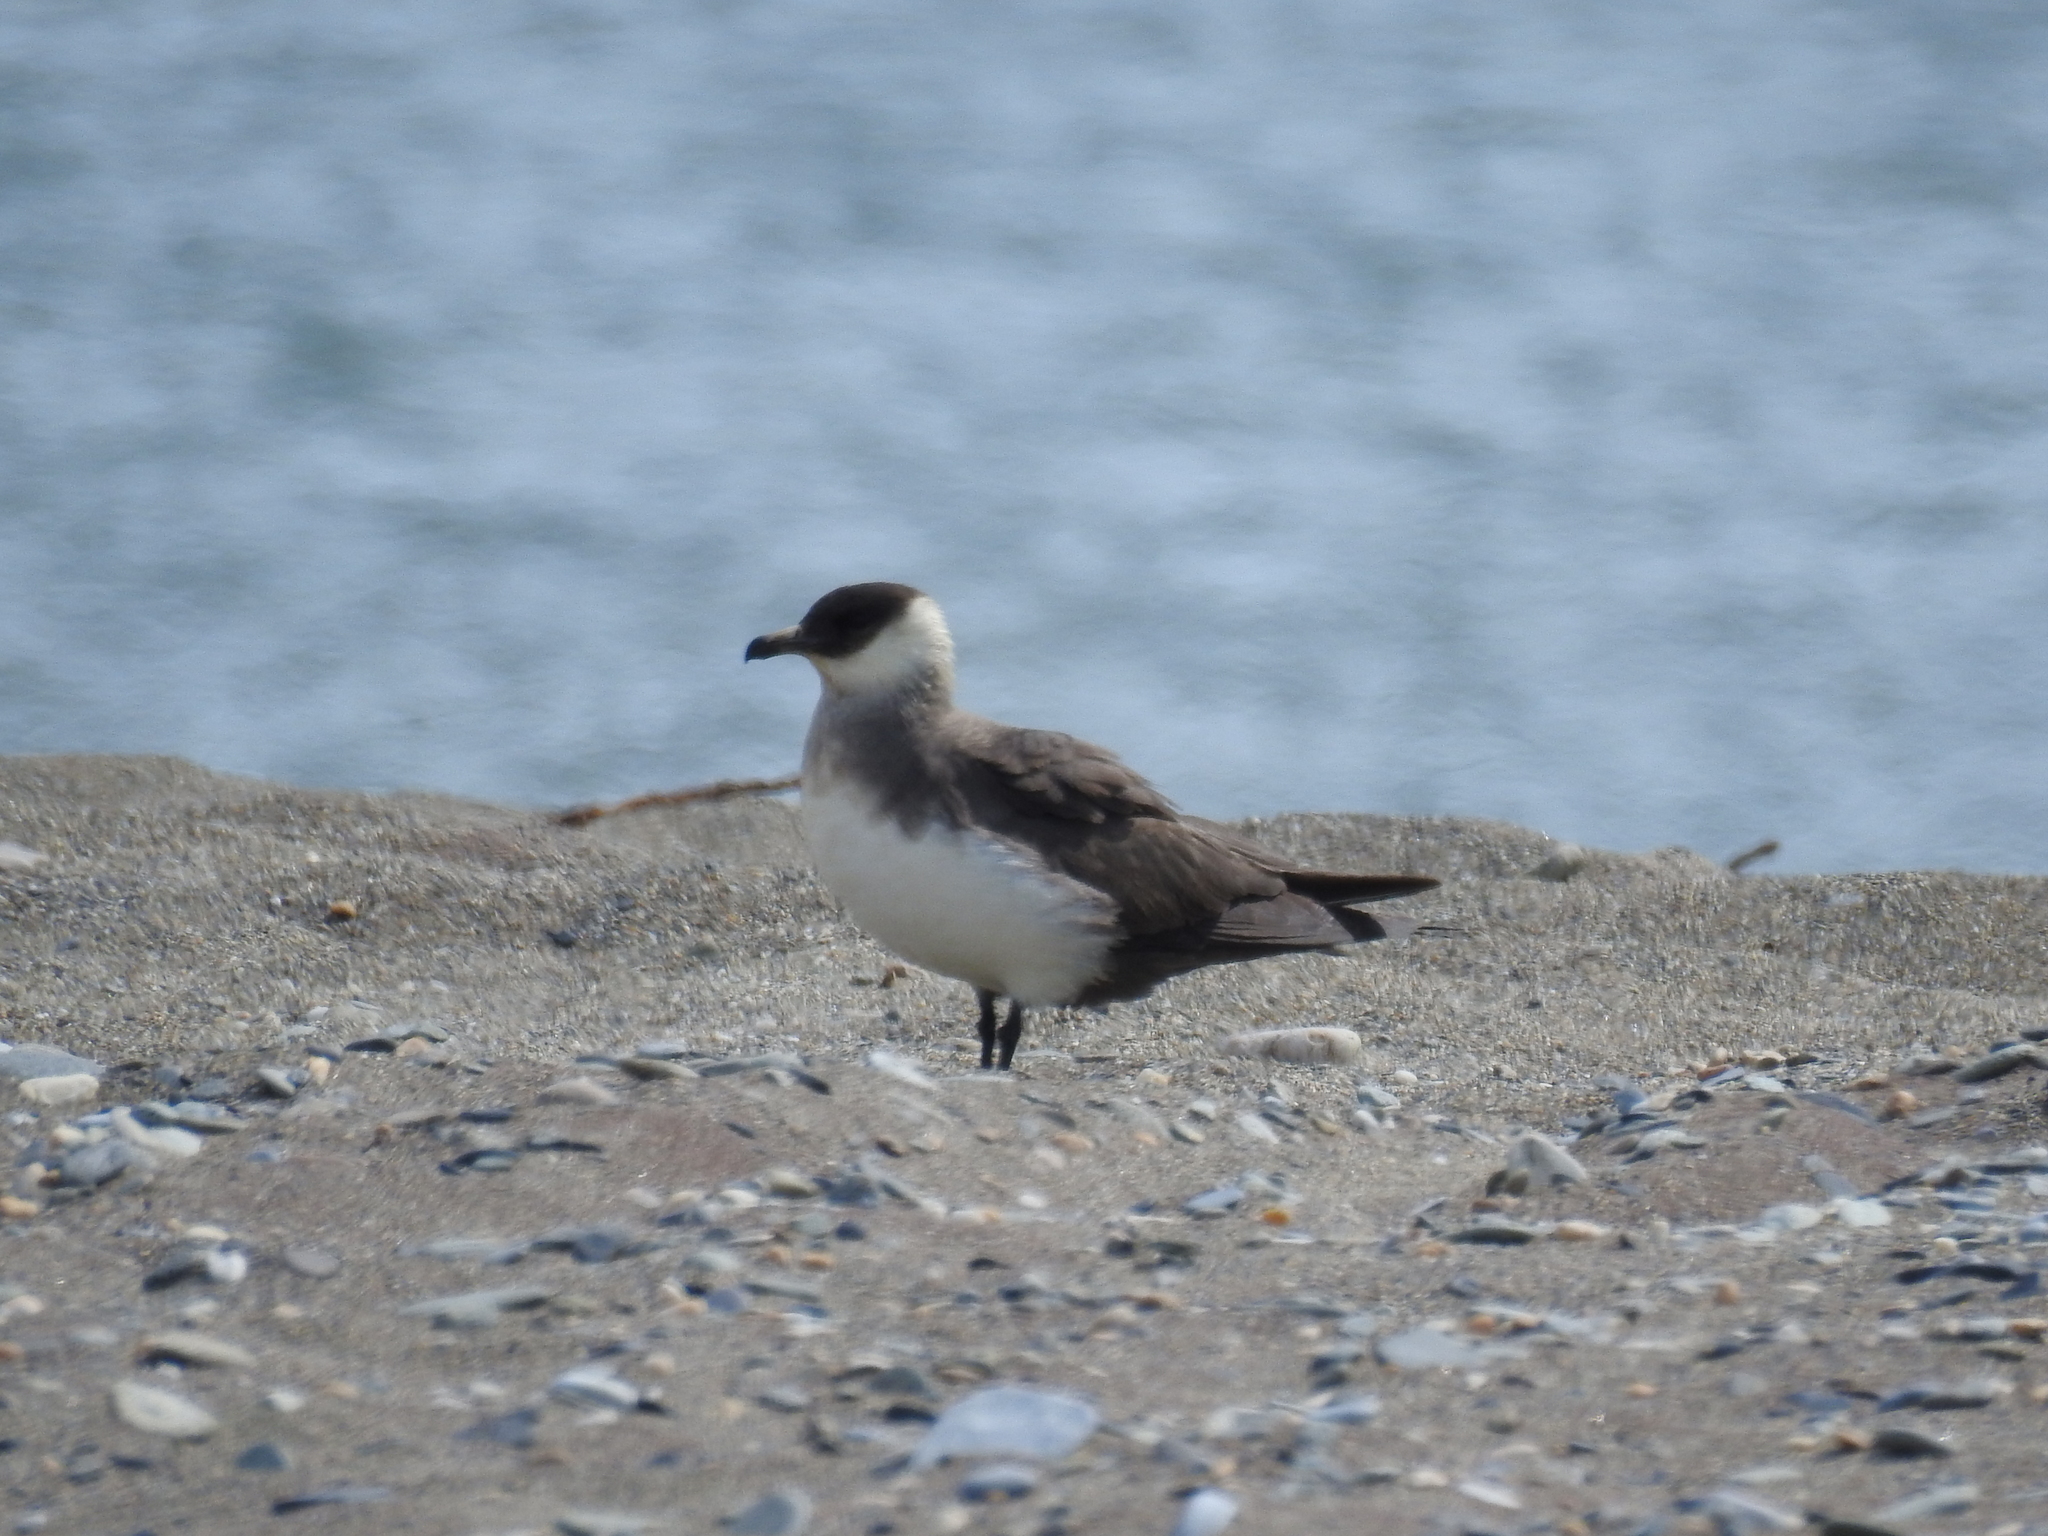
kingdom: Animalia
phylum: Chordata
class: Aves
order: Charadriiformes
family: Stercorariidae
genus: Stercorarius
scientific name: Stercorarius parasiticus
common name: Parasitic jaeger
